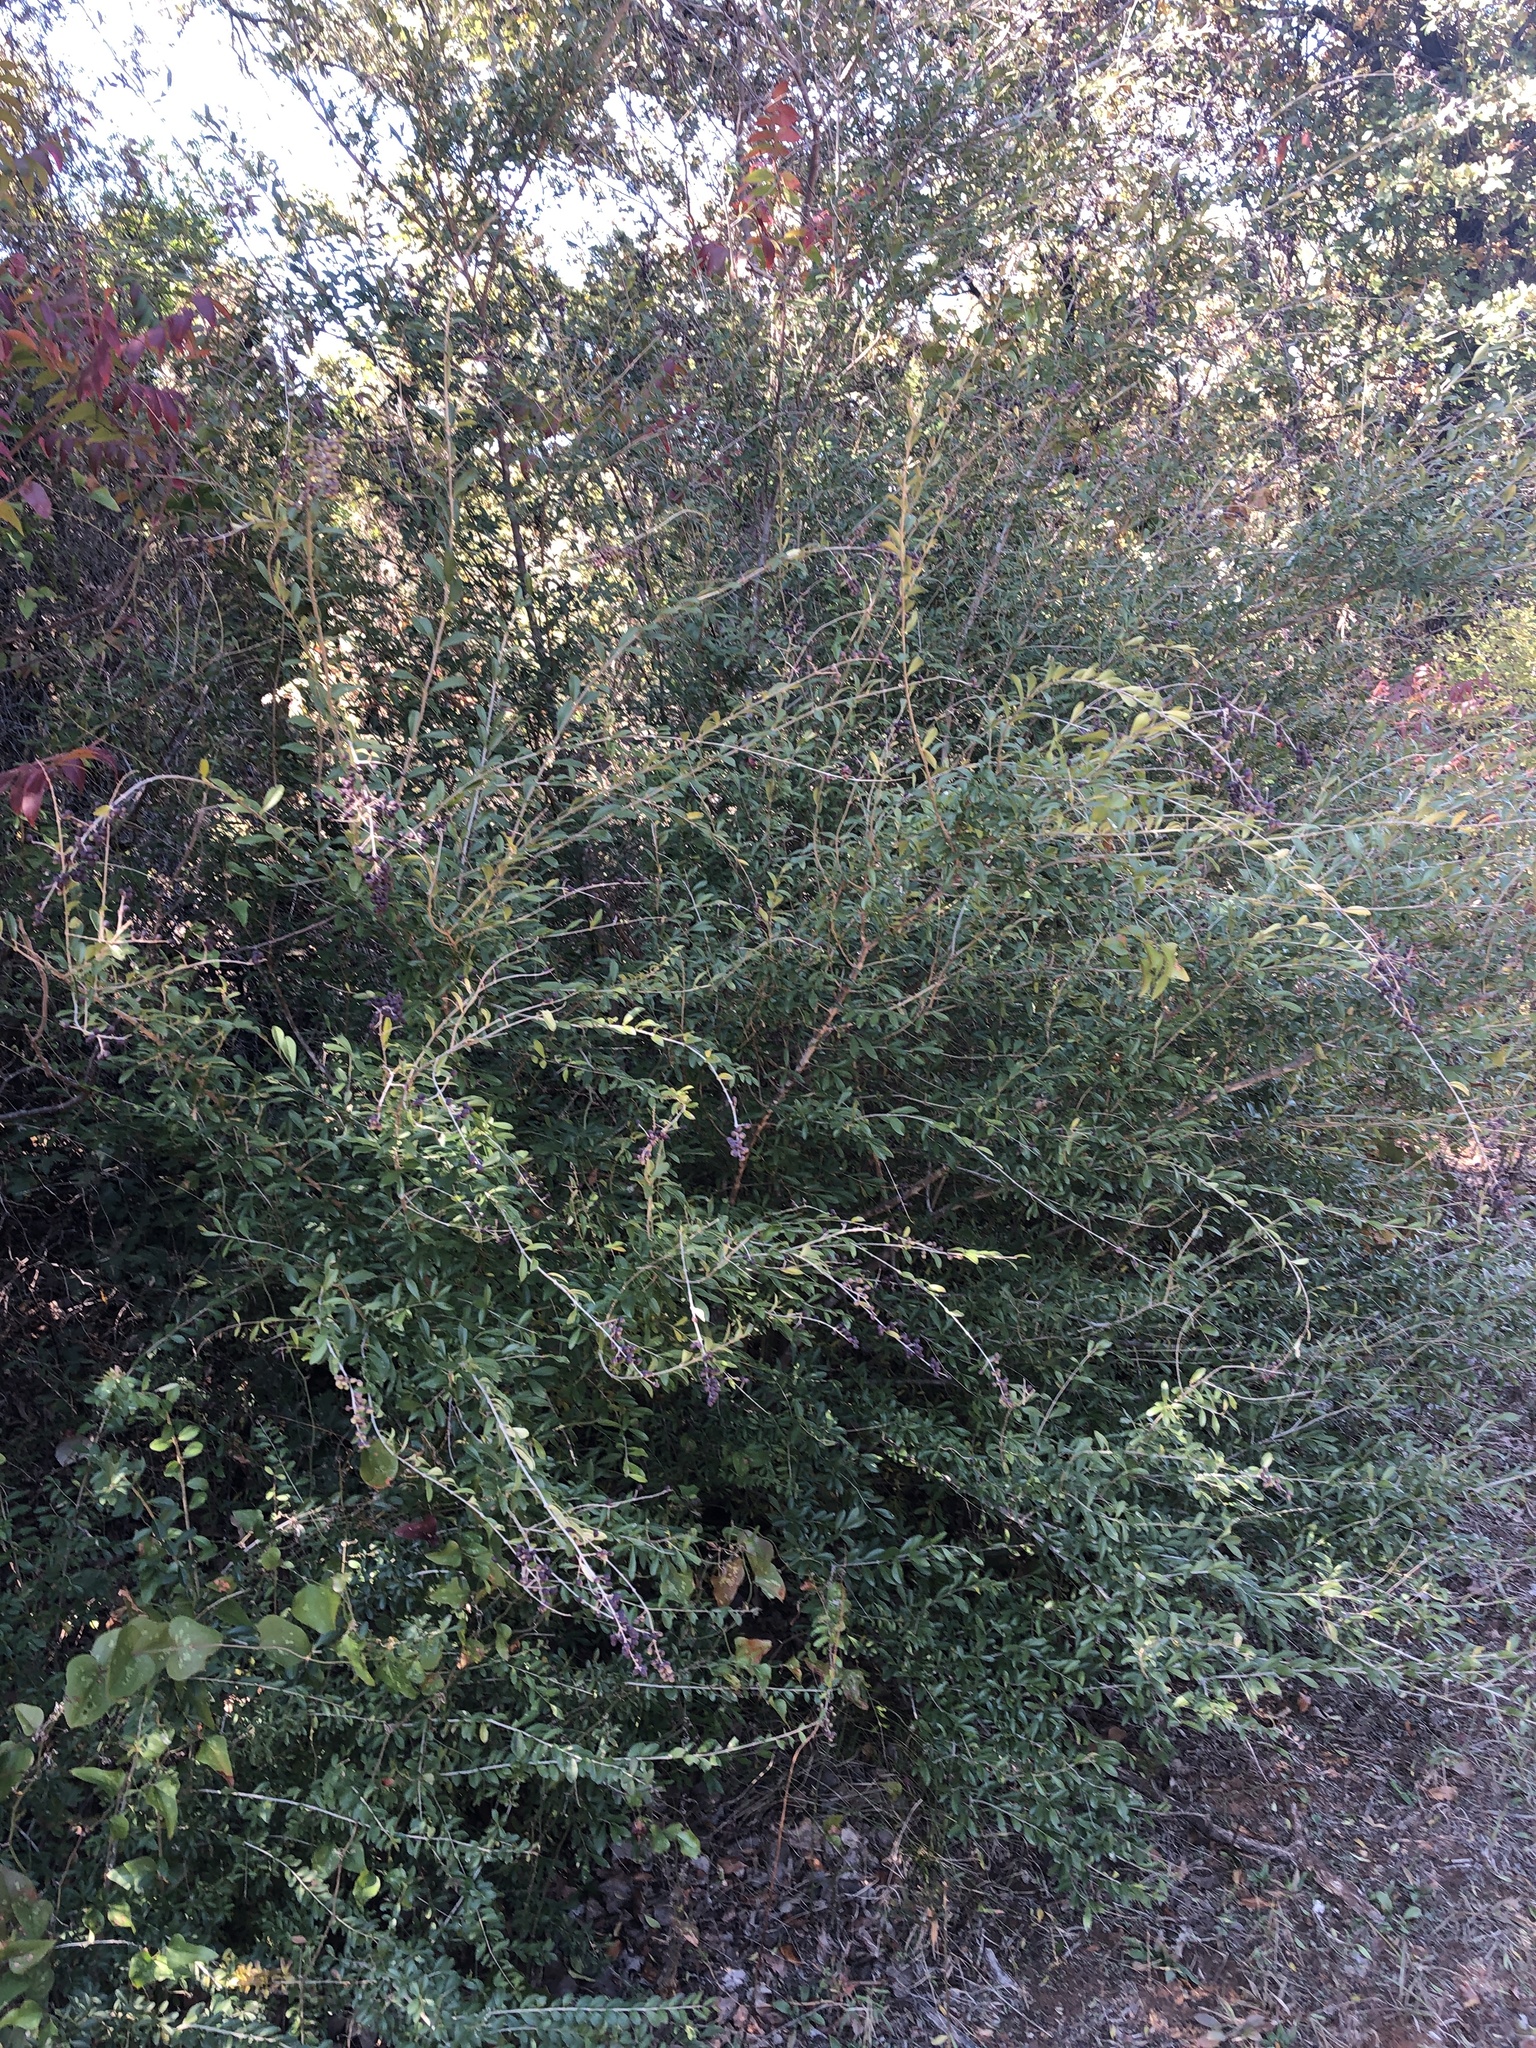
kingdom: Plantae
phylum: Tracheophyta
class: Magnoliopsida
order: Lamiales
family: Oleaceae
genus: Ligustrum
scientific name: Ligustrum quihoui
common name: Waxyleaf privet
